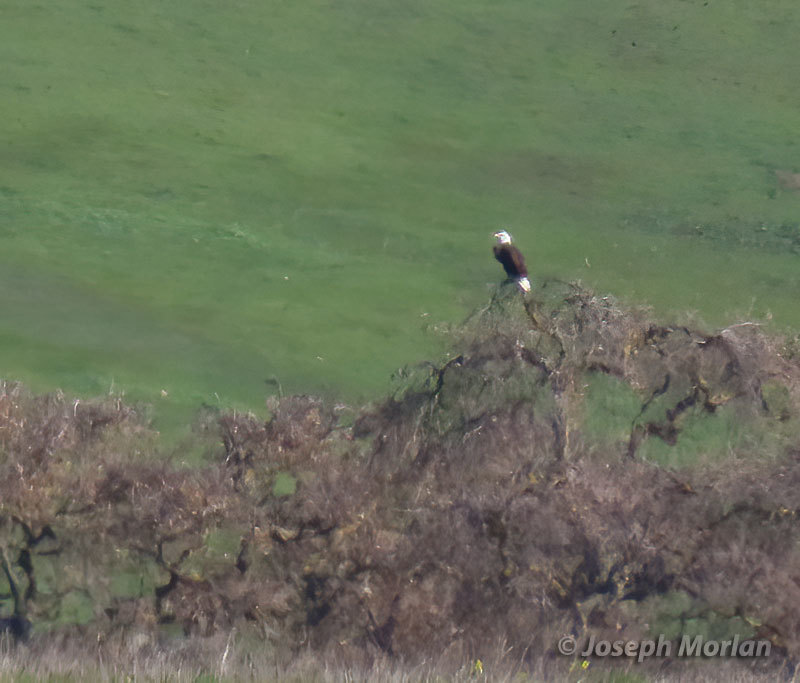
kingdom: Animalia
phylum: Chordata
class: Aves
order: Accipitriformes
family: Accipitridae
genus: Haliaeetus
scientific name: Haliaeetus leucocephalus
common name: Bald eagle
